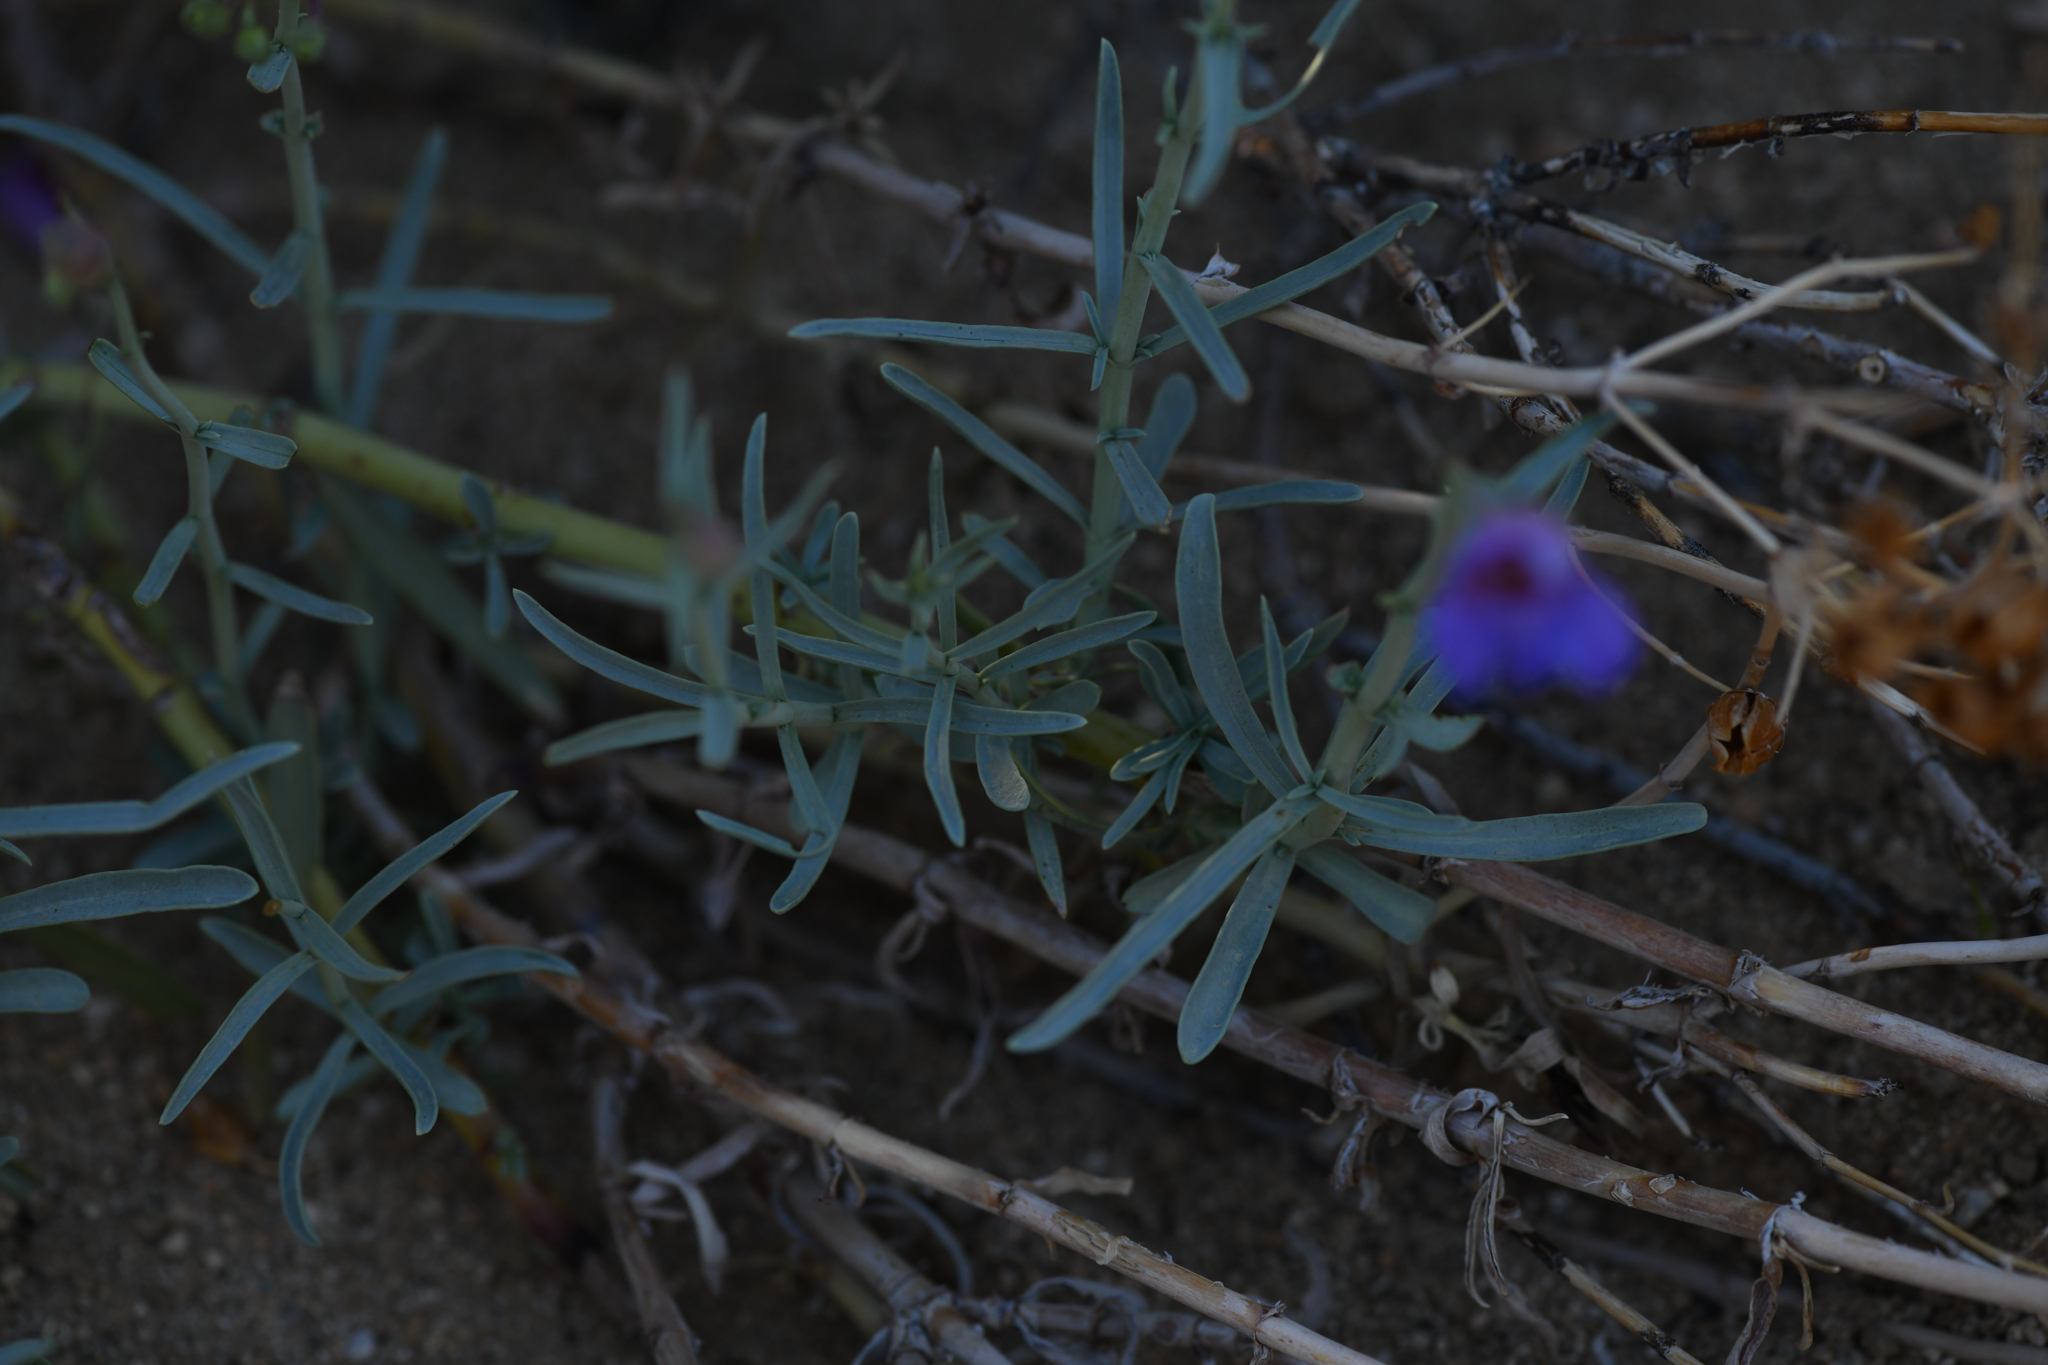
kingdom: Plantae
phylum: Tracheophyta
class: Magnoliopsida
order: Lamiales
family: Plantaginaceae
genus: Penstemon
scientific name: Penstemon incertus
